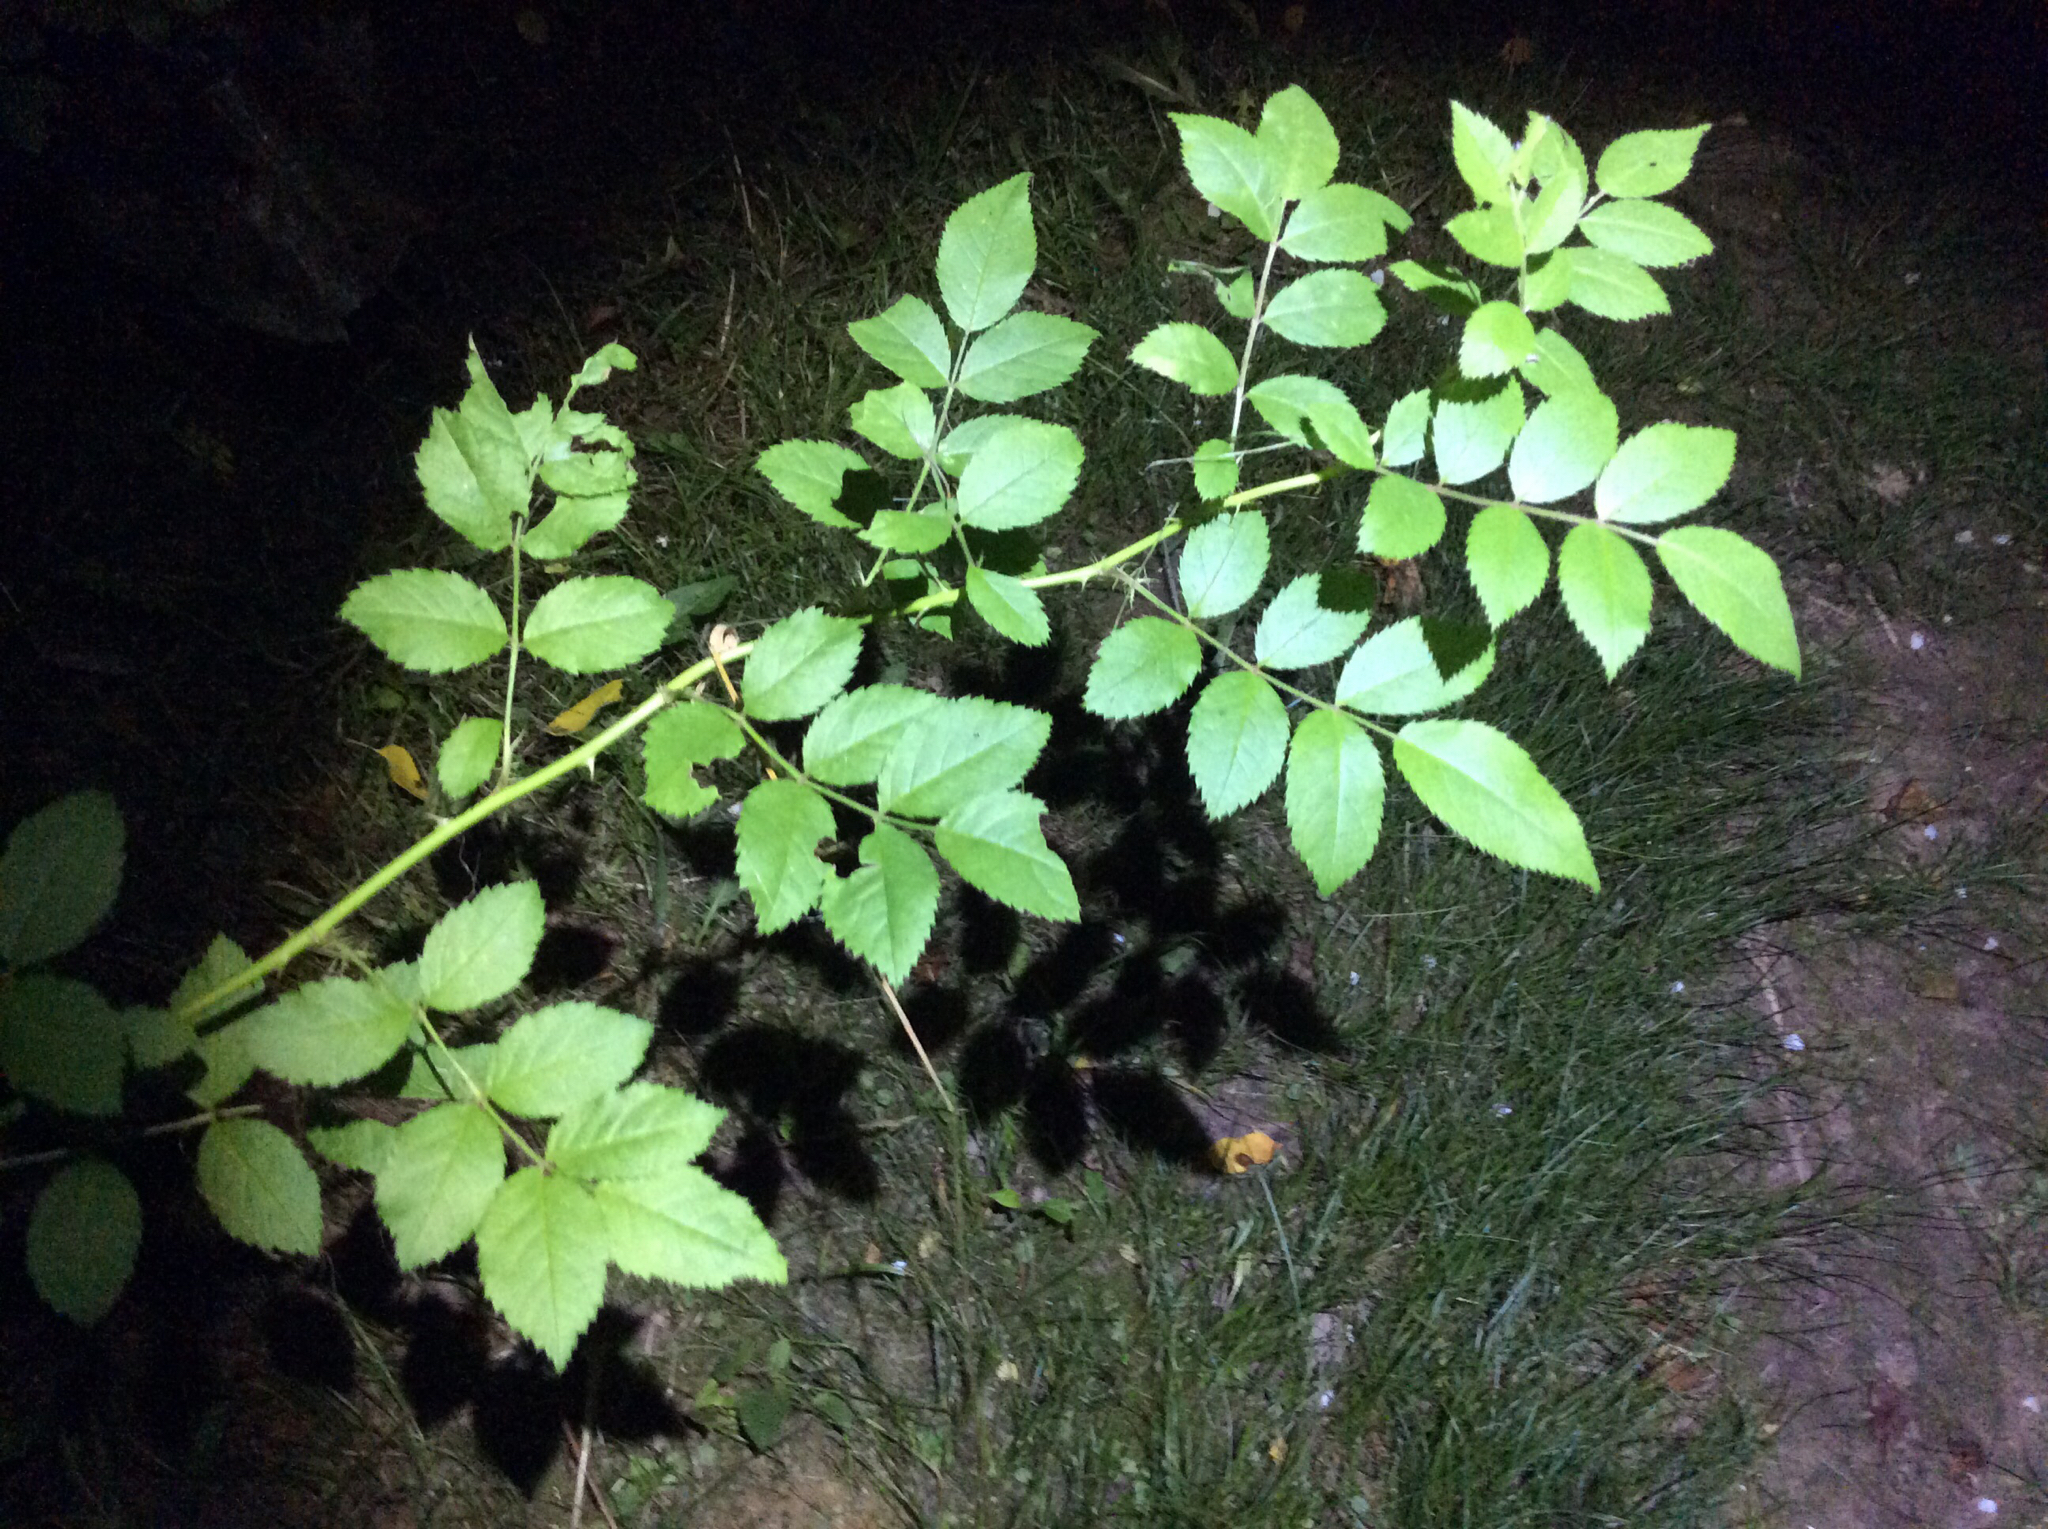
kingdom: Plantae
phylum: Tracheophyta
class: Magnoliopsida
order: Rosales
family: Rosaceae
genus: Rosa
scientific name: Rosa multiflora
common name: Multiflora rose
